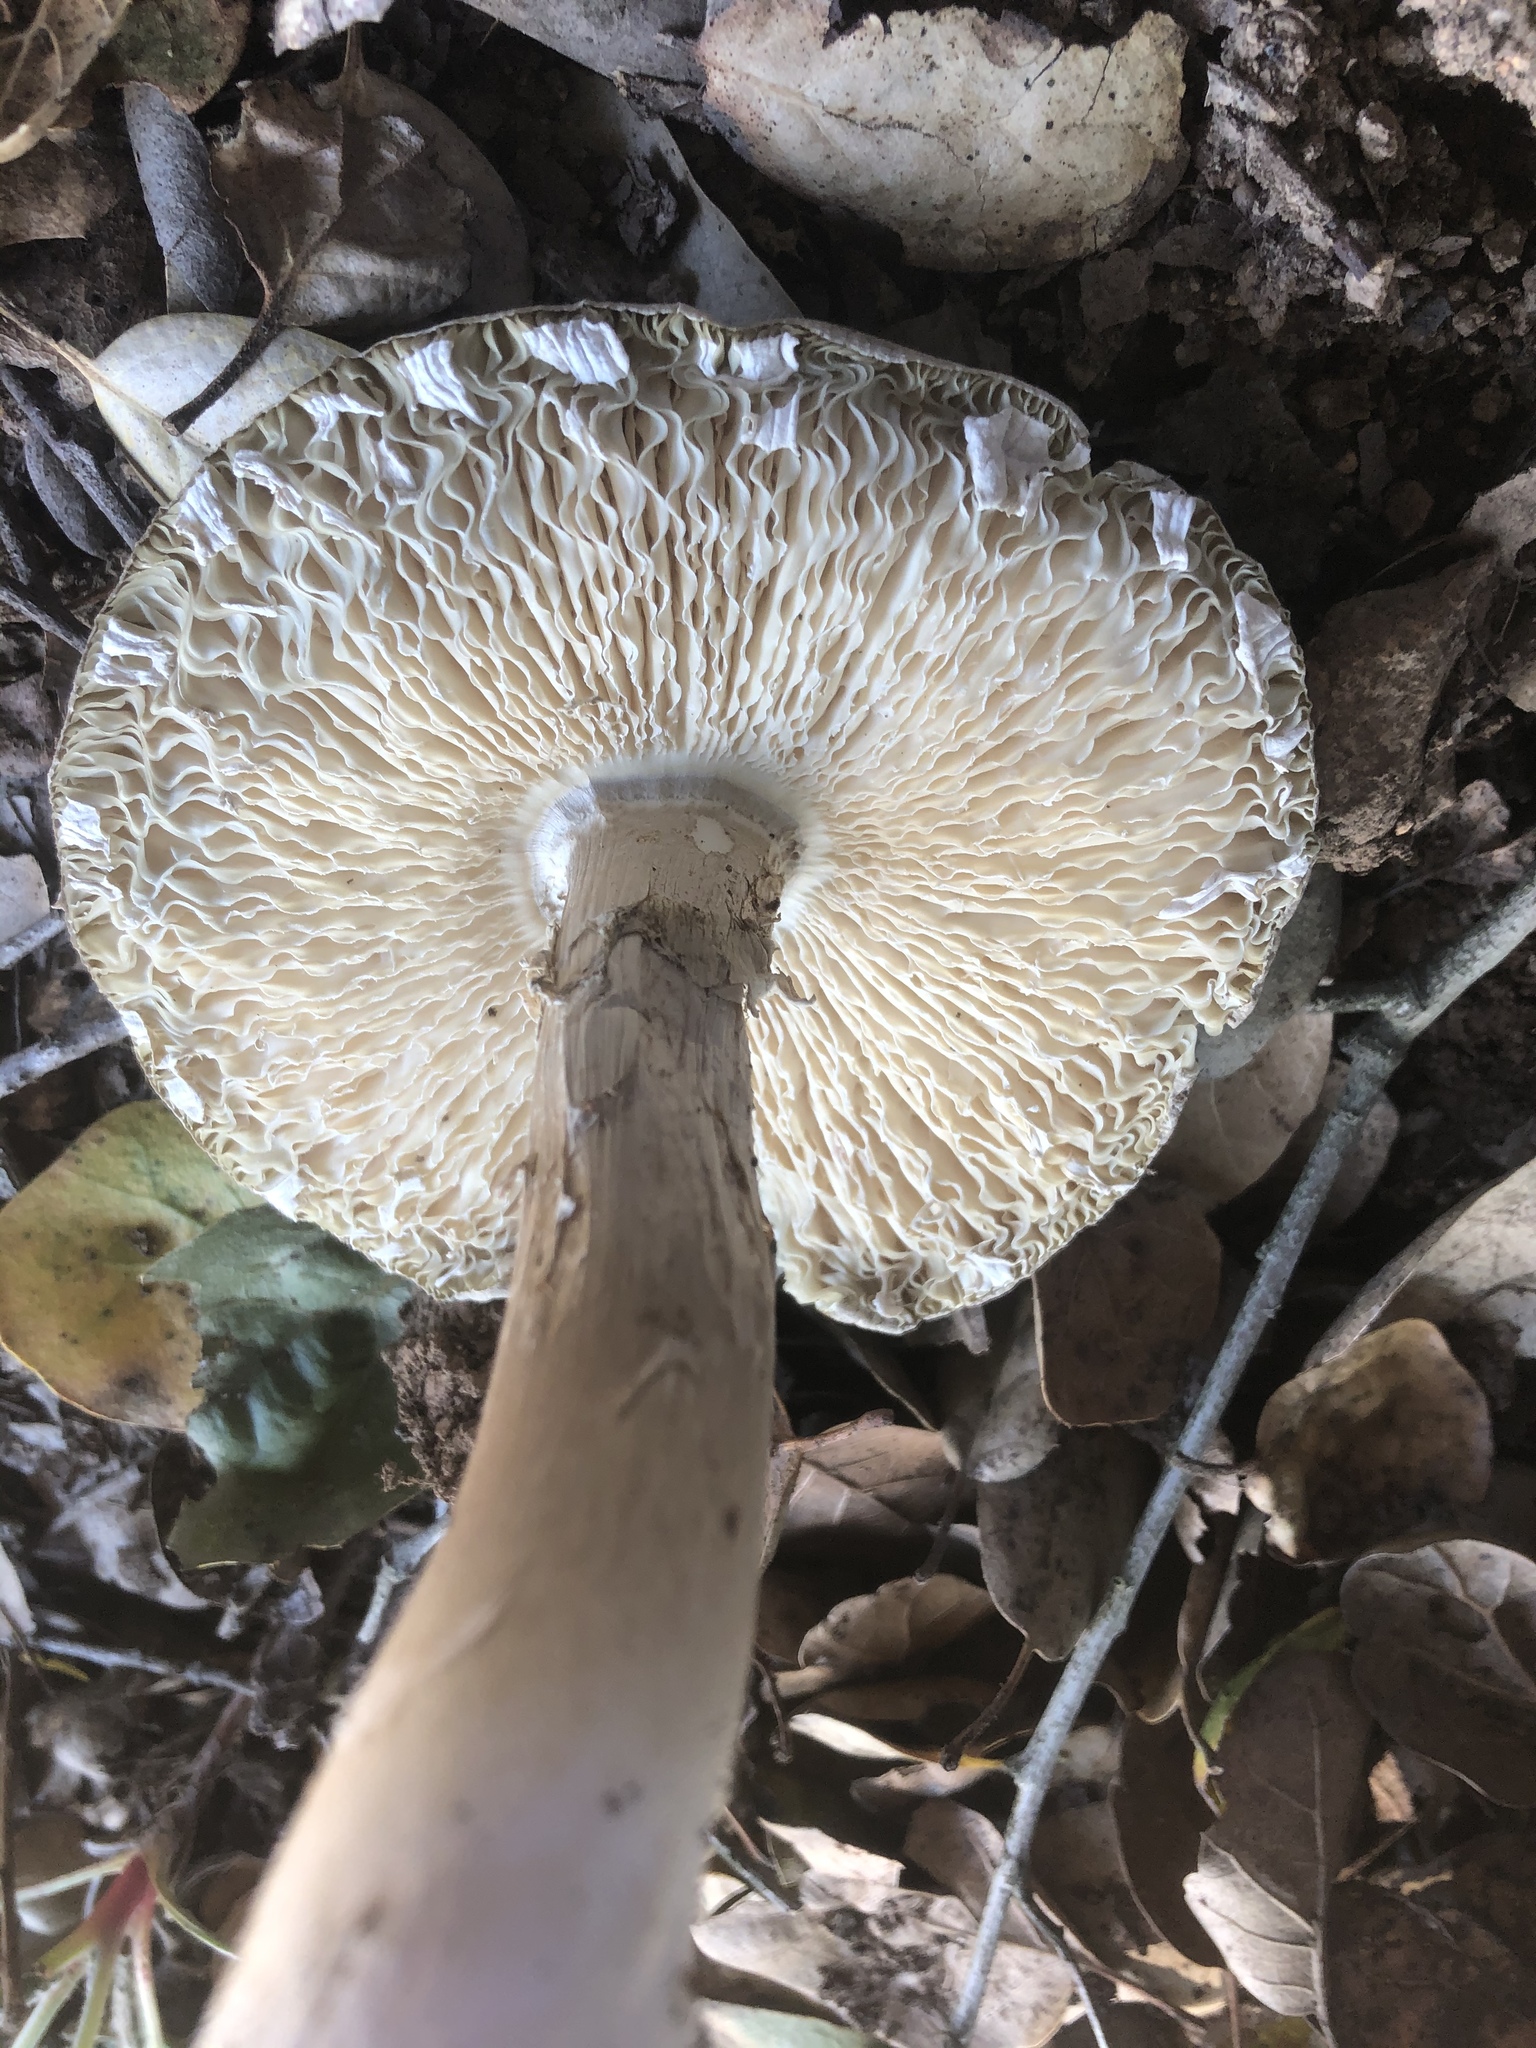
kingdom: Fungi
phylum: Basidiomycota
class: Agaricomycetes
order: Agaricales
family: Amanitaceae
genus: Amanita
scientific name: Amanita phalloides
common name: Death cap
